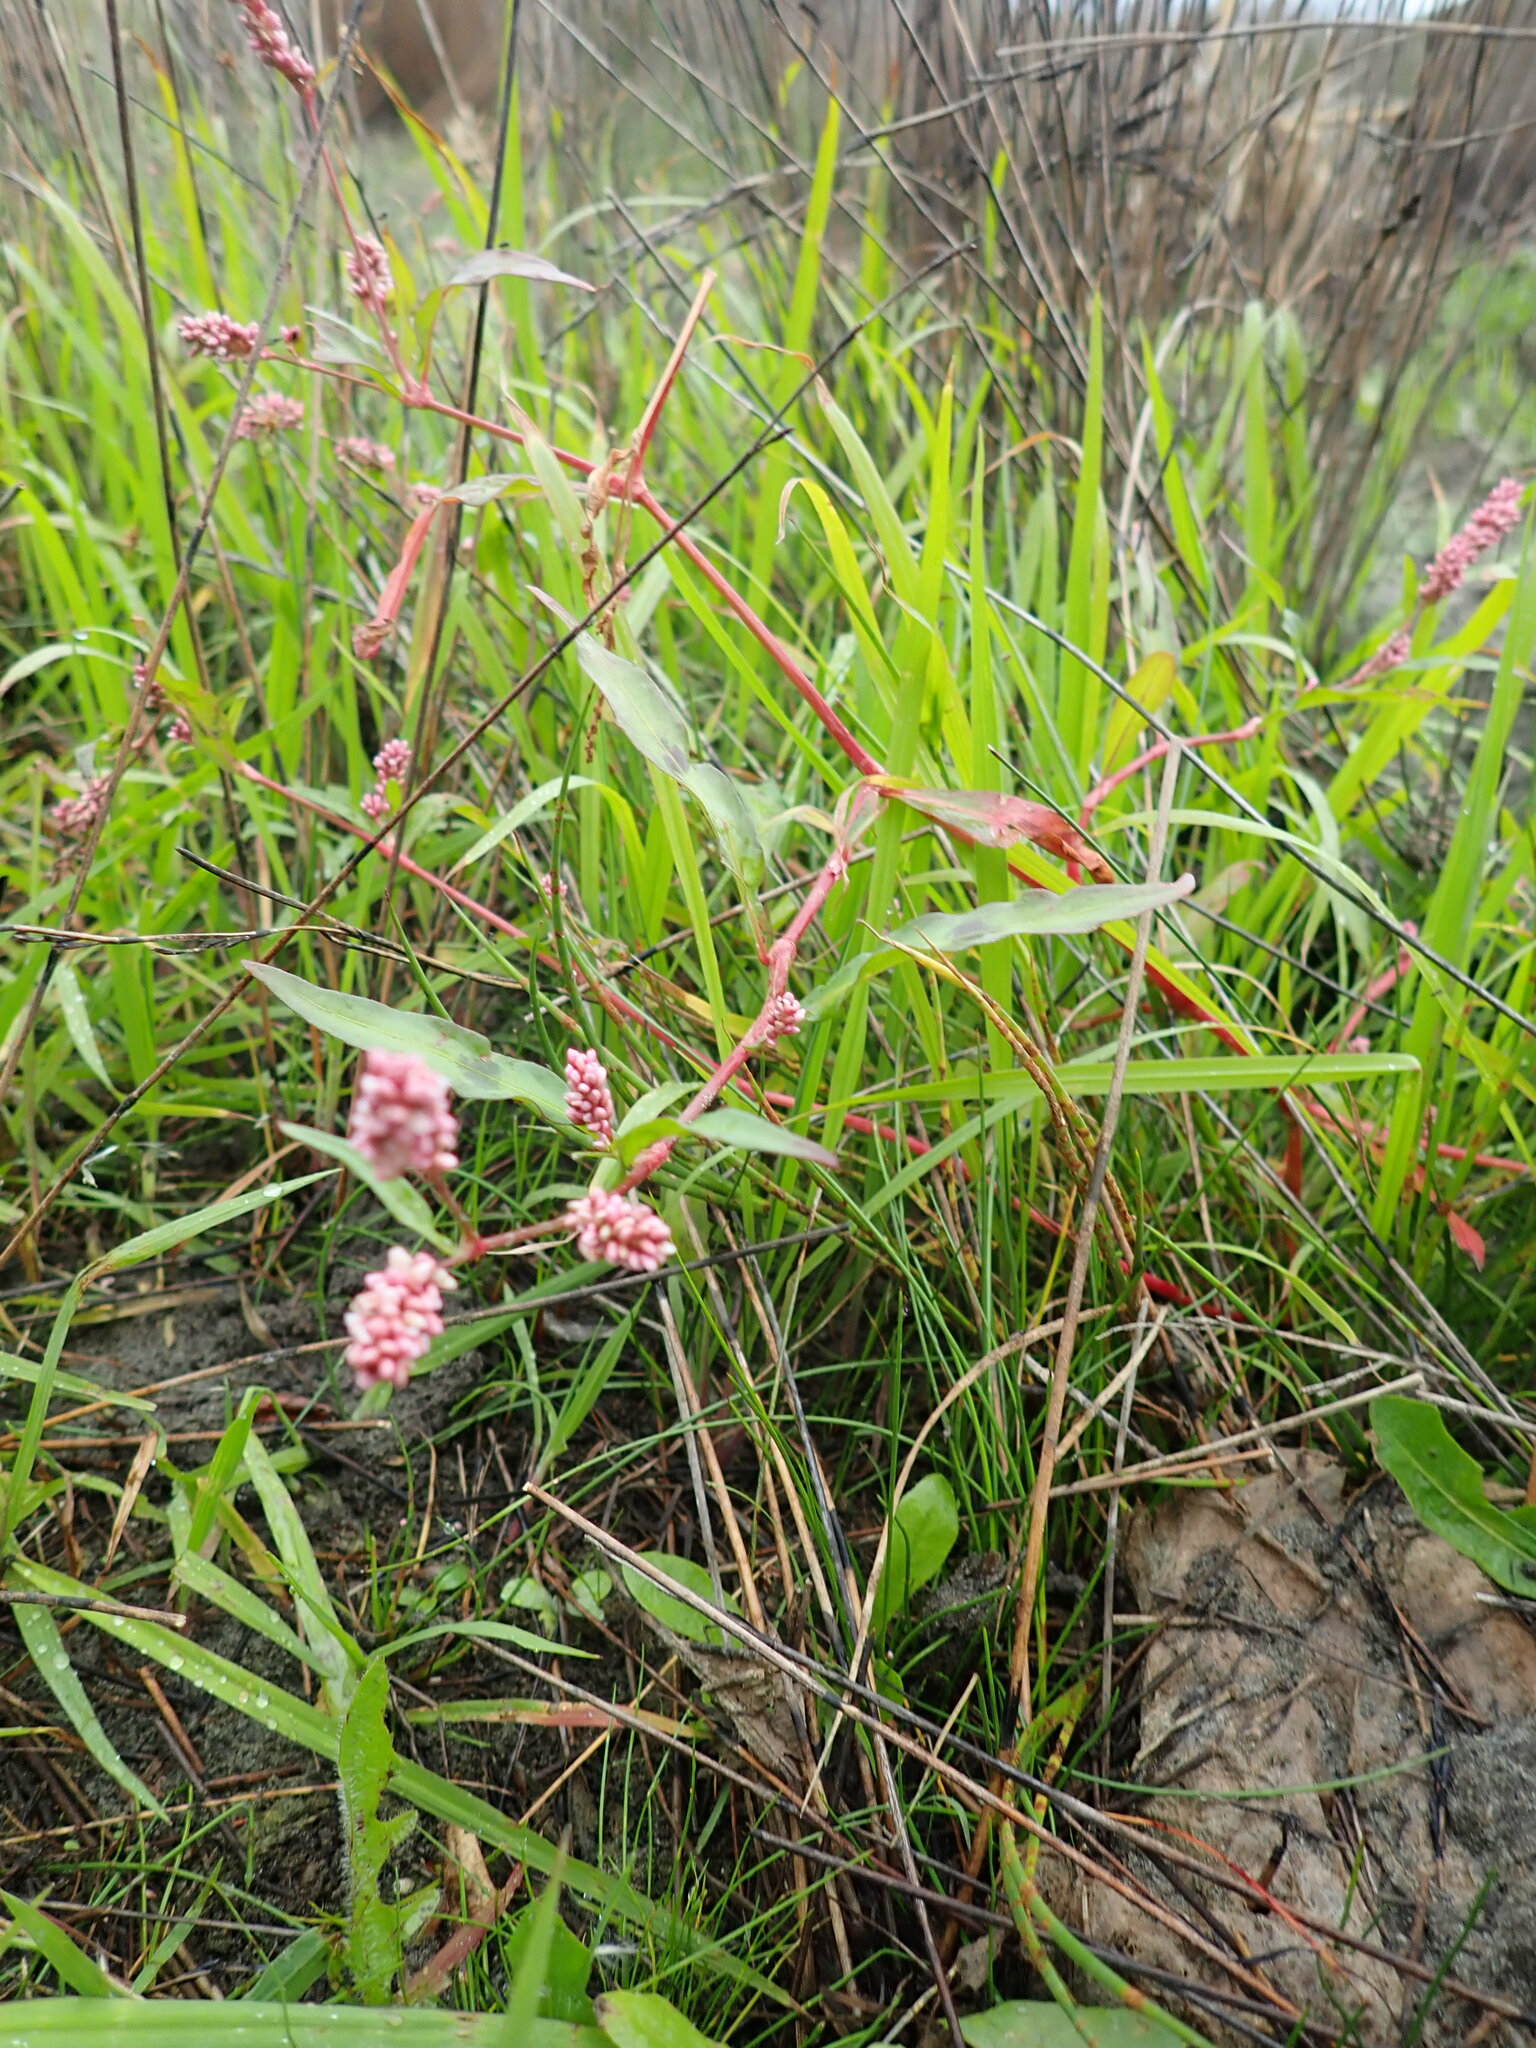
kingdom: Plantae
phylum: Tracheophyta
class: Magnoliopsida
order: Caryophyllales
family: Polygonaceae
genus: Persicaria
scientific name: Persicaria maculosa
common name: Redshank
